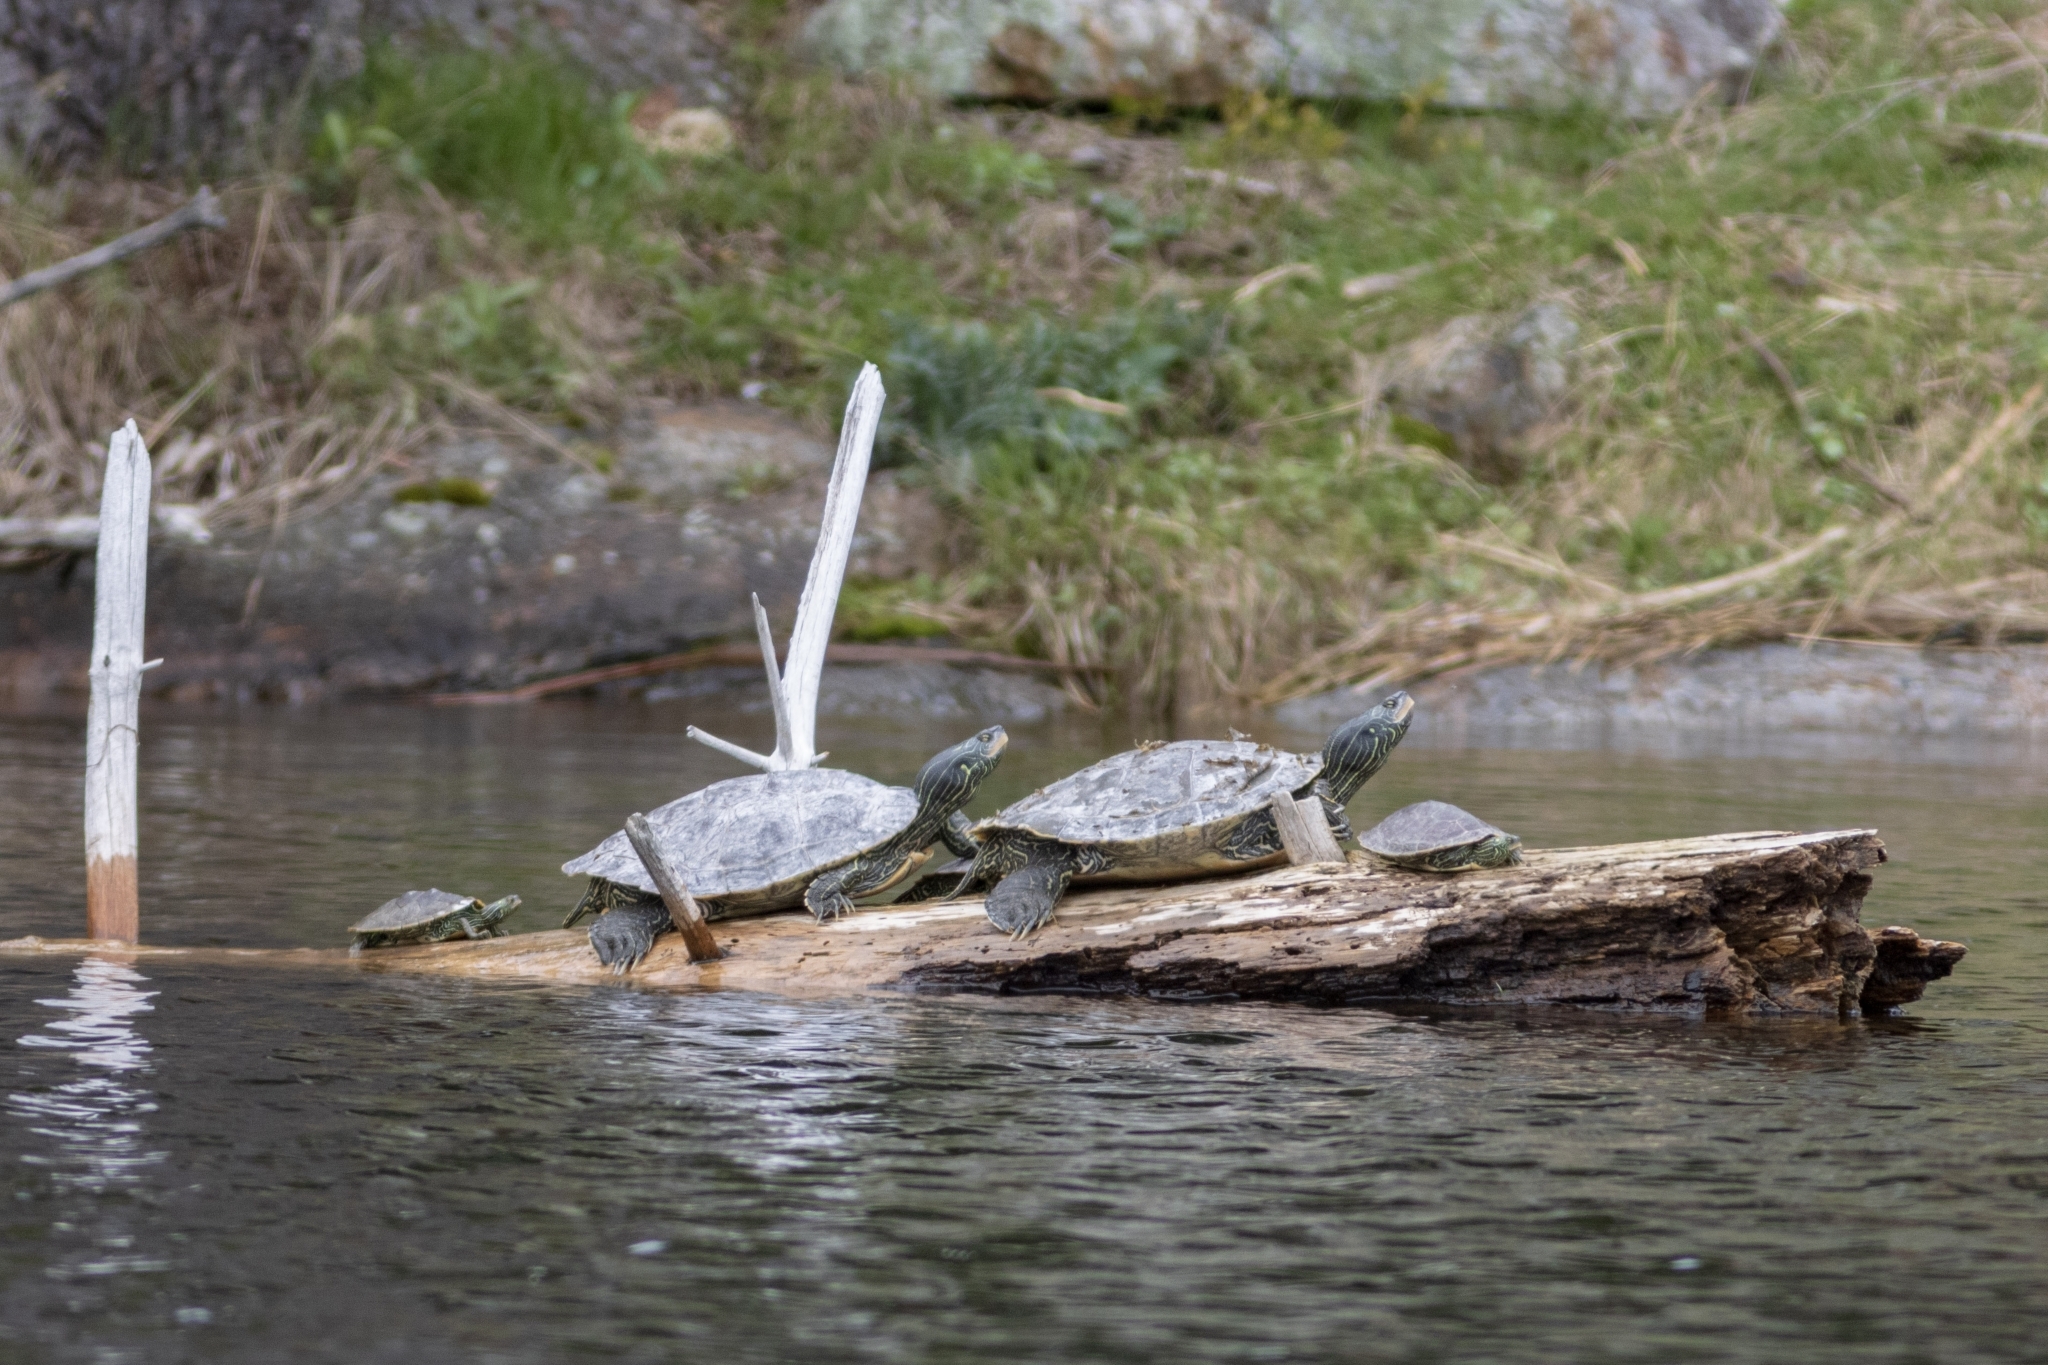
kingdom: Animalia
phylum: Chordata
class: Testudines
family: Emydidae
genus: Graptemys
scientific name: Graptemys geographica
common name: Common map turtle
